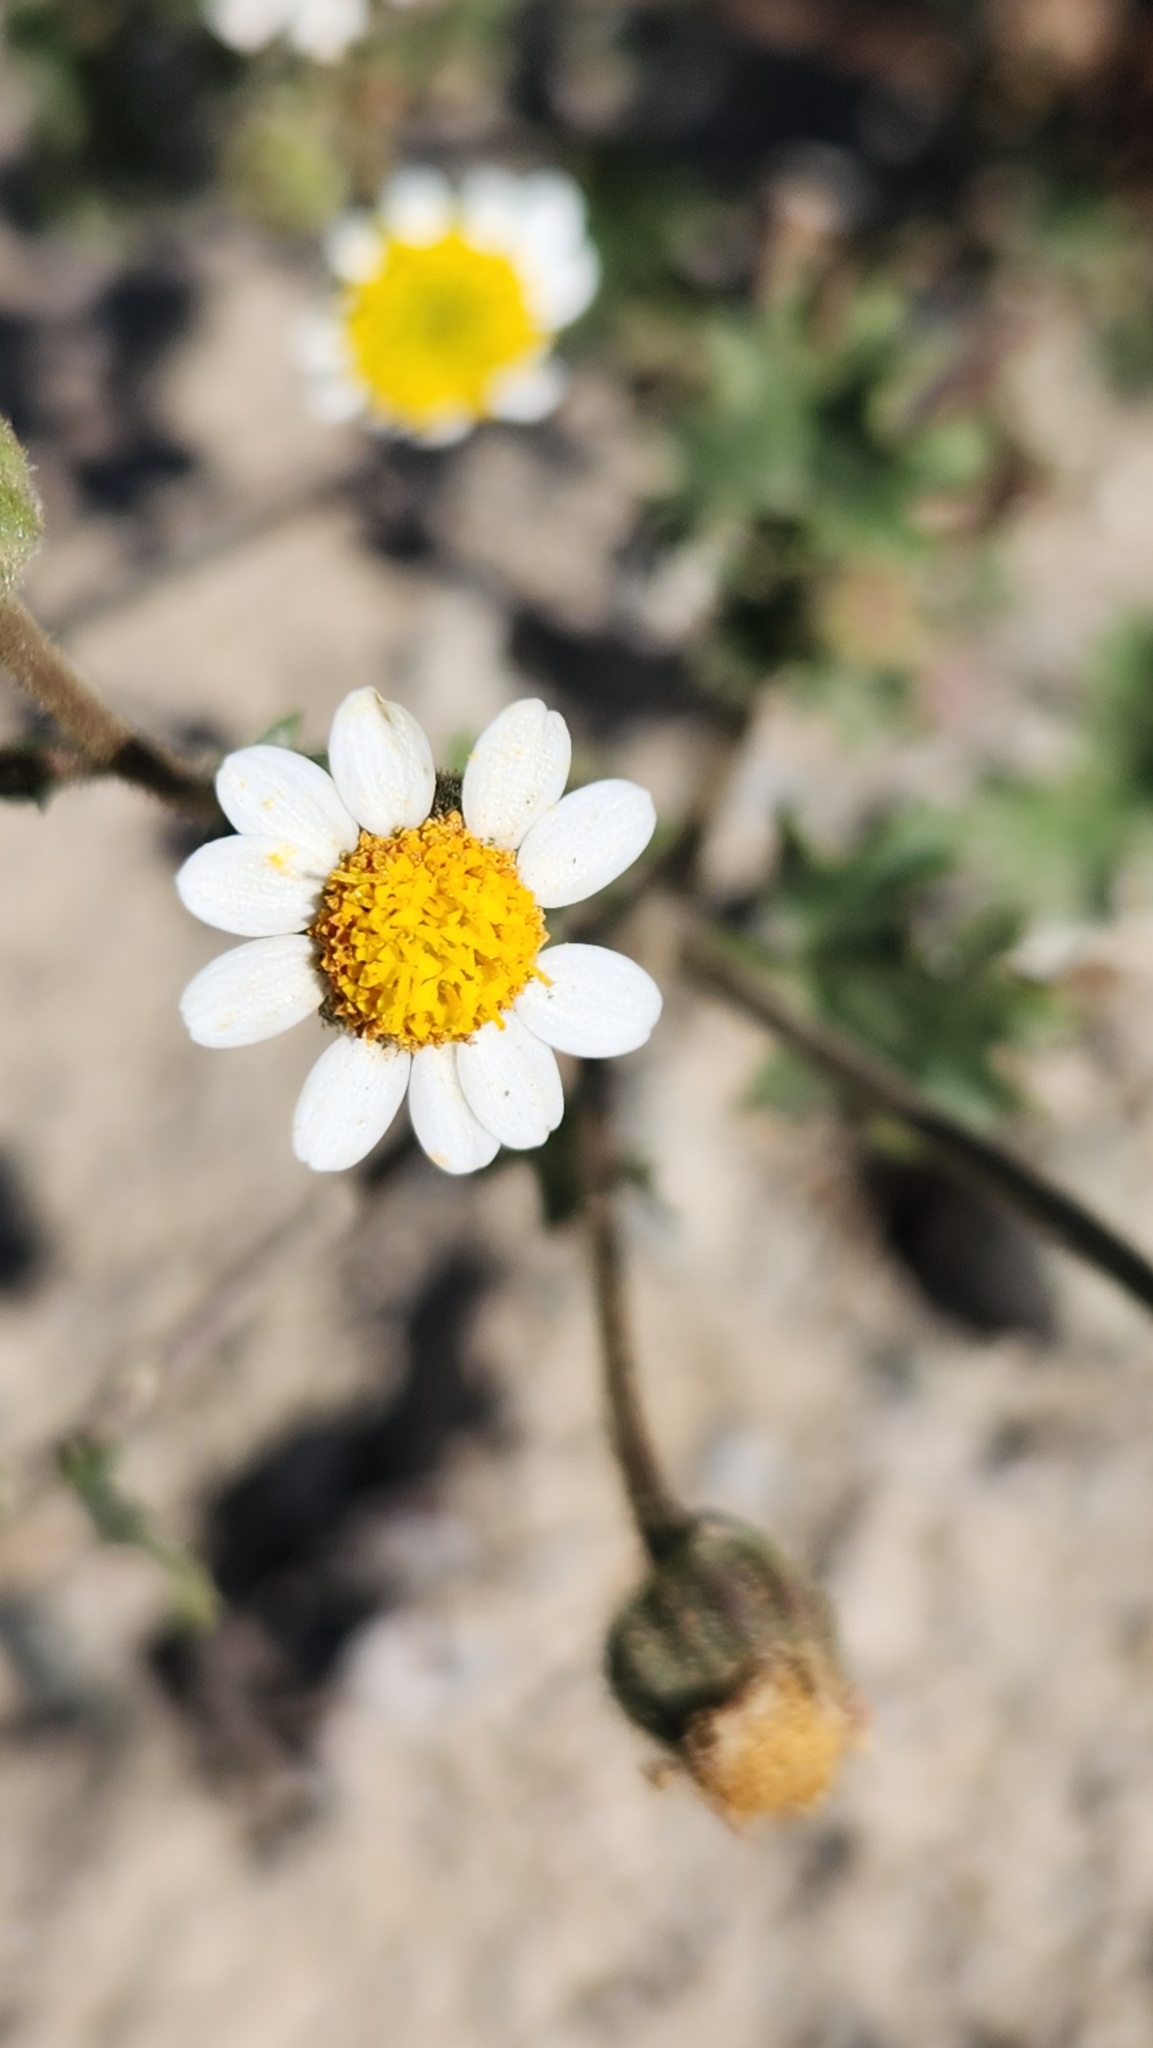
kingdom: Plantae
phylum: Tracheophyta
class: Magnoliopsida
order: Asterales
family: Asteraceae
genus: Laphamia
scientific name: Laphamia emoryi
